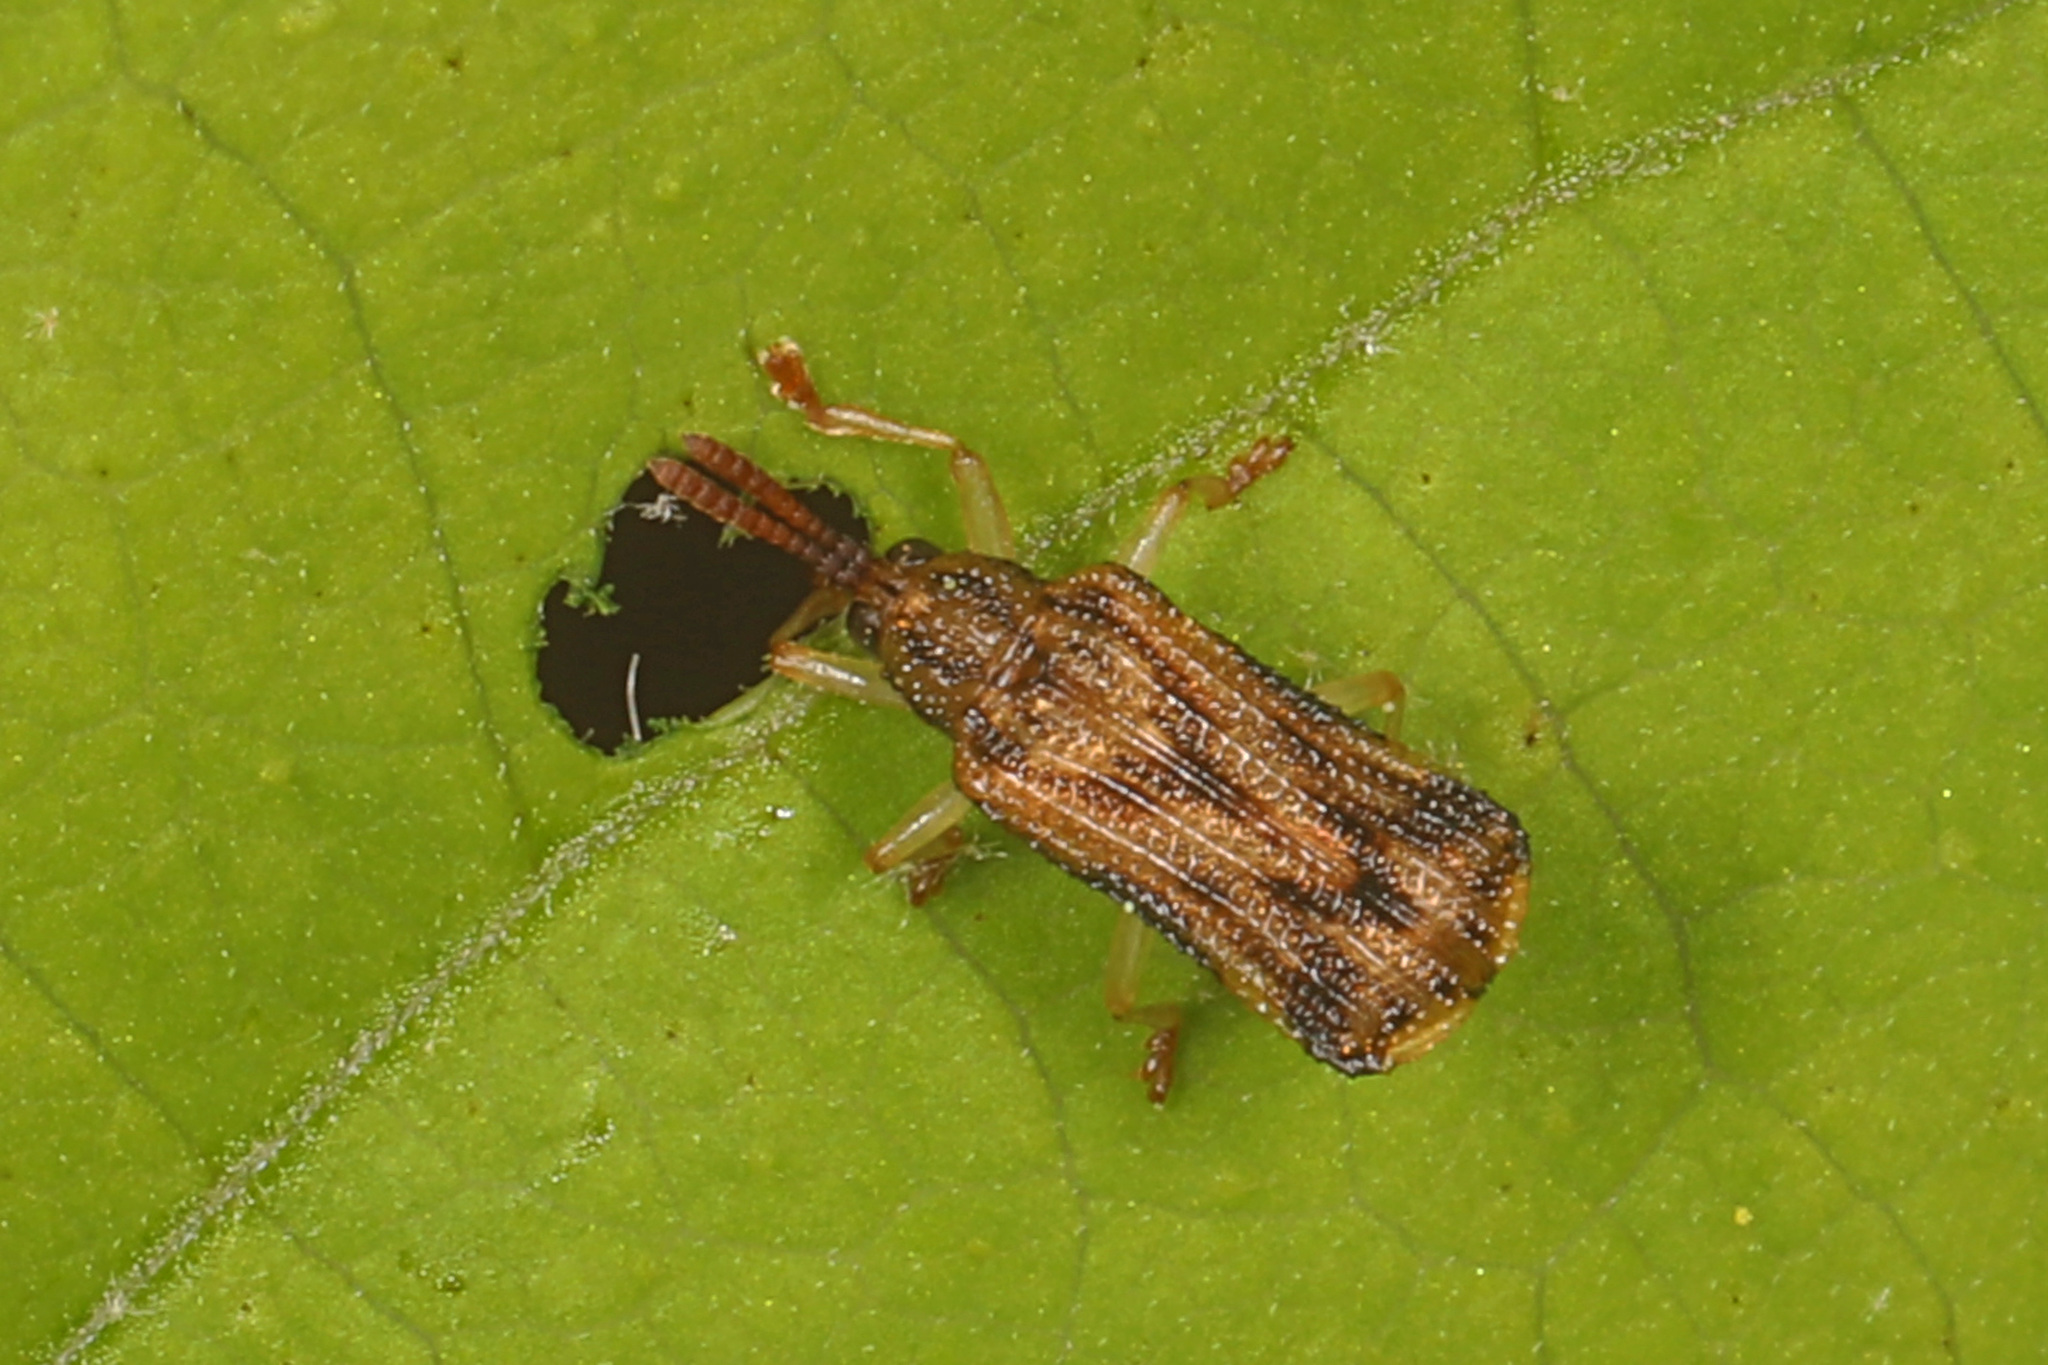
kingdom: Animalia
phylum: Arthropoda
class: Insecta
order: Coleoptera
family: Chrysomelidae
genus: Sumitrosis
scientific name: Sumitrosis rosea
